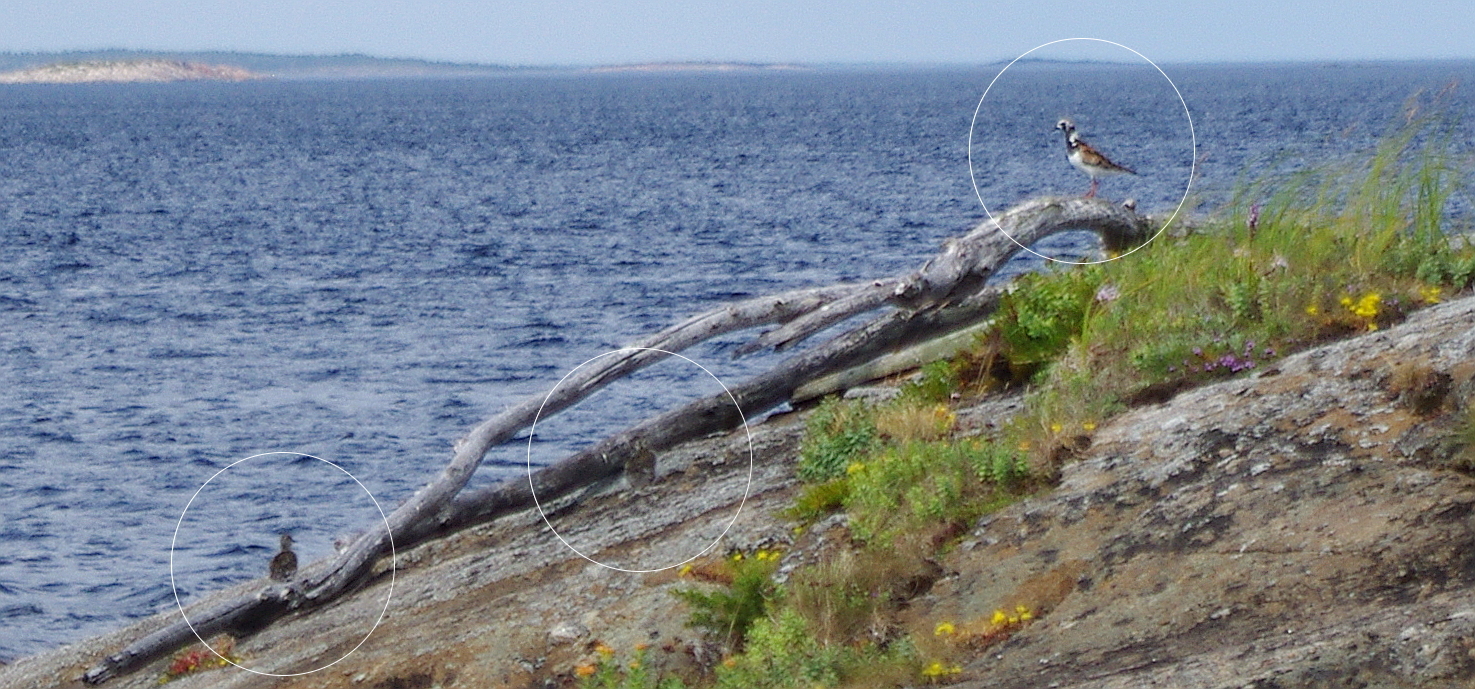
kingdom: Animalia
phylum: Chordata
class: Aves
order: Charadriiformes
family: Scolopacidae
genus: Arenaria
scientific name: Arenaria interpres
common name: Ruddy turnstone
